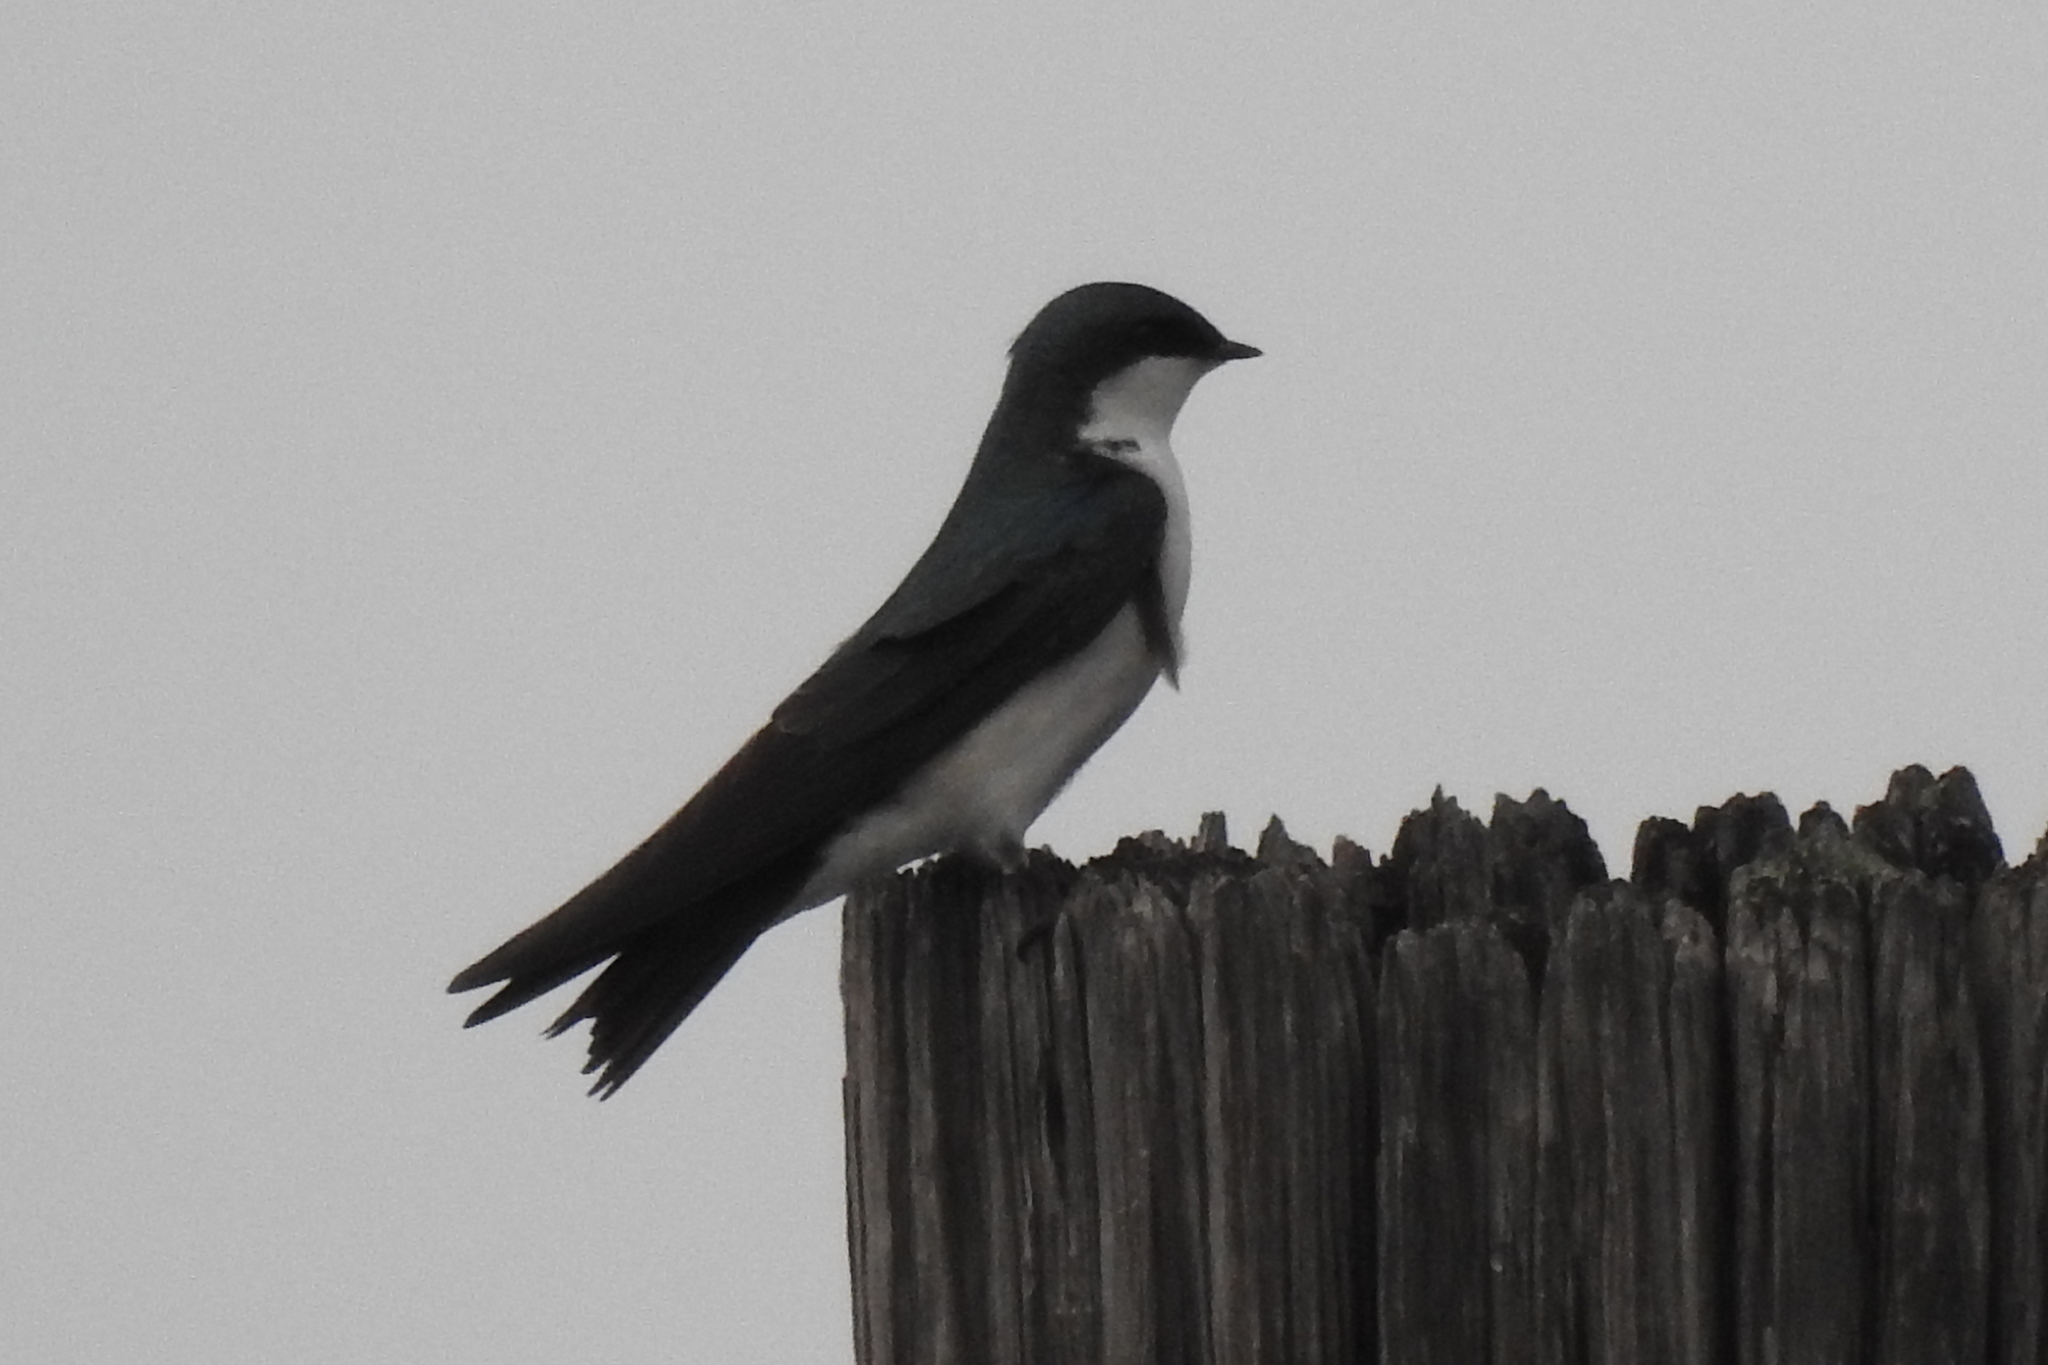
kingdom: Animalia
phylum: Chordata
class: Aves
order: Passeriformes
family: Hirundinidae
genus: Tachycineta
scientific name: Tachycineta bicolor
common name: Tree swallow
